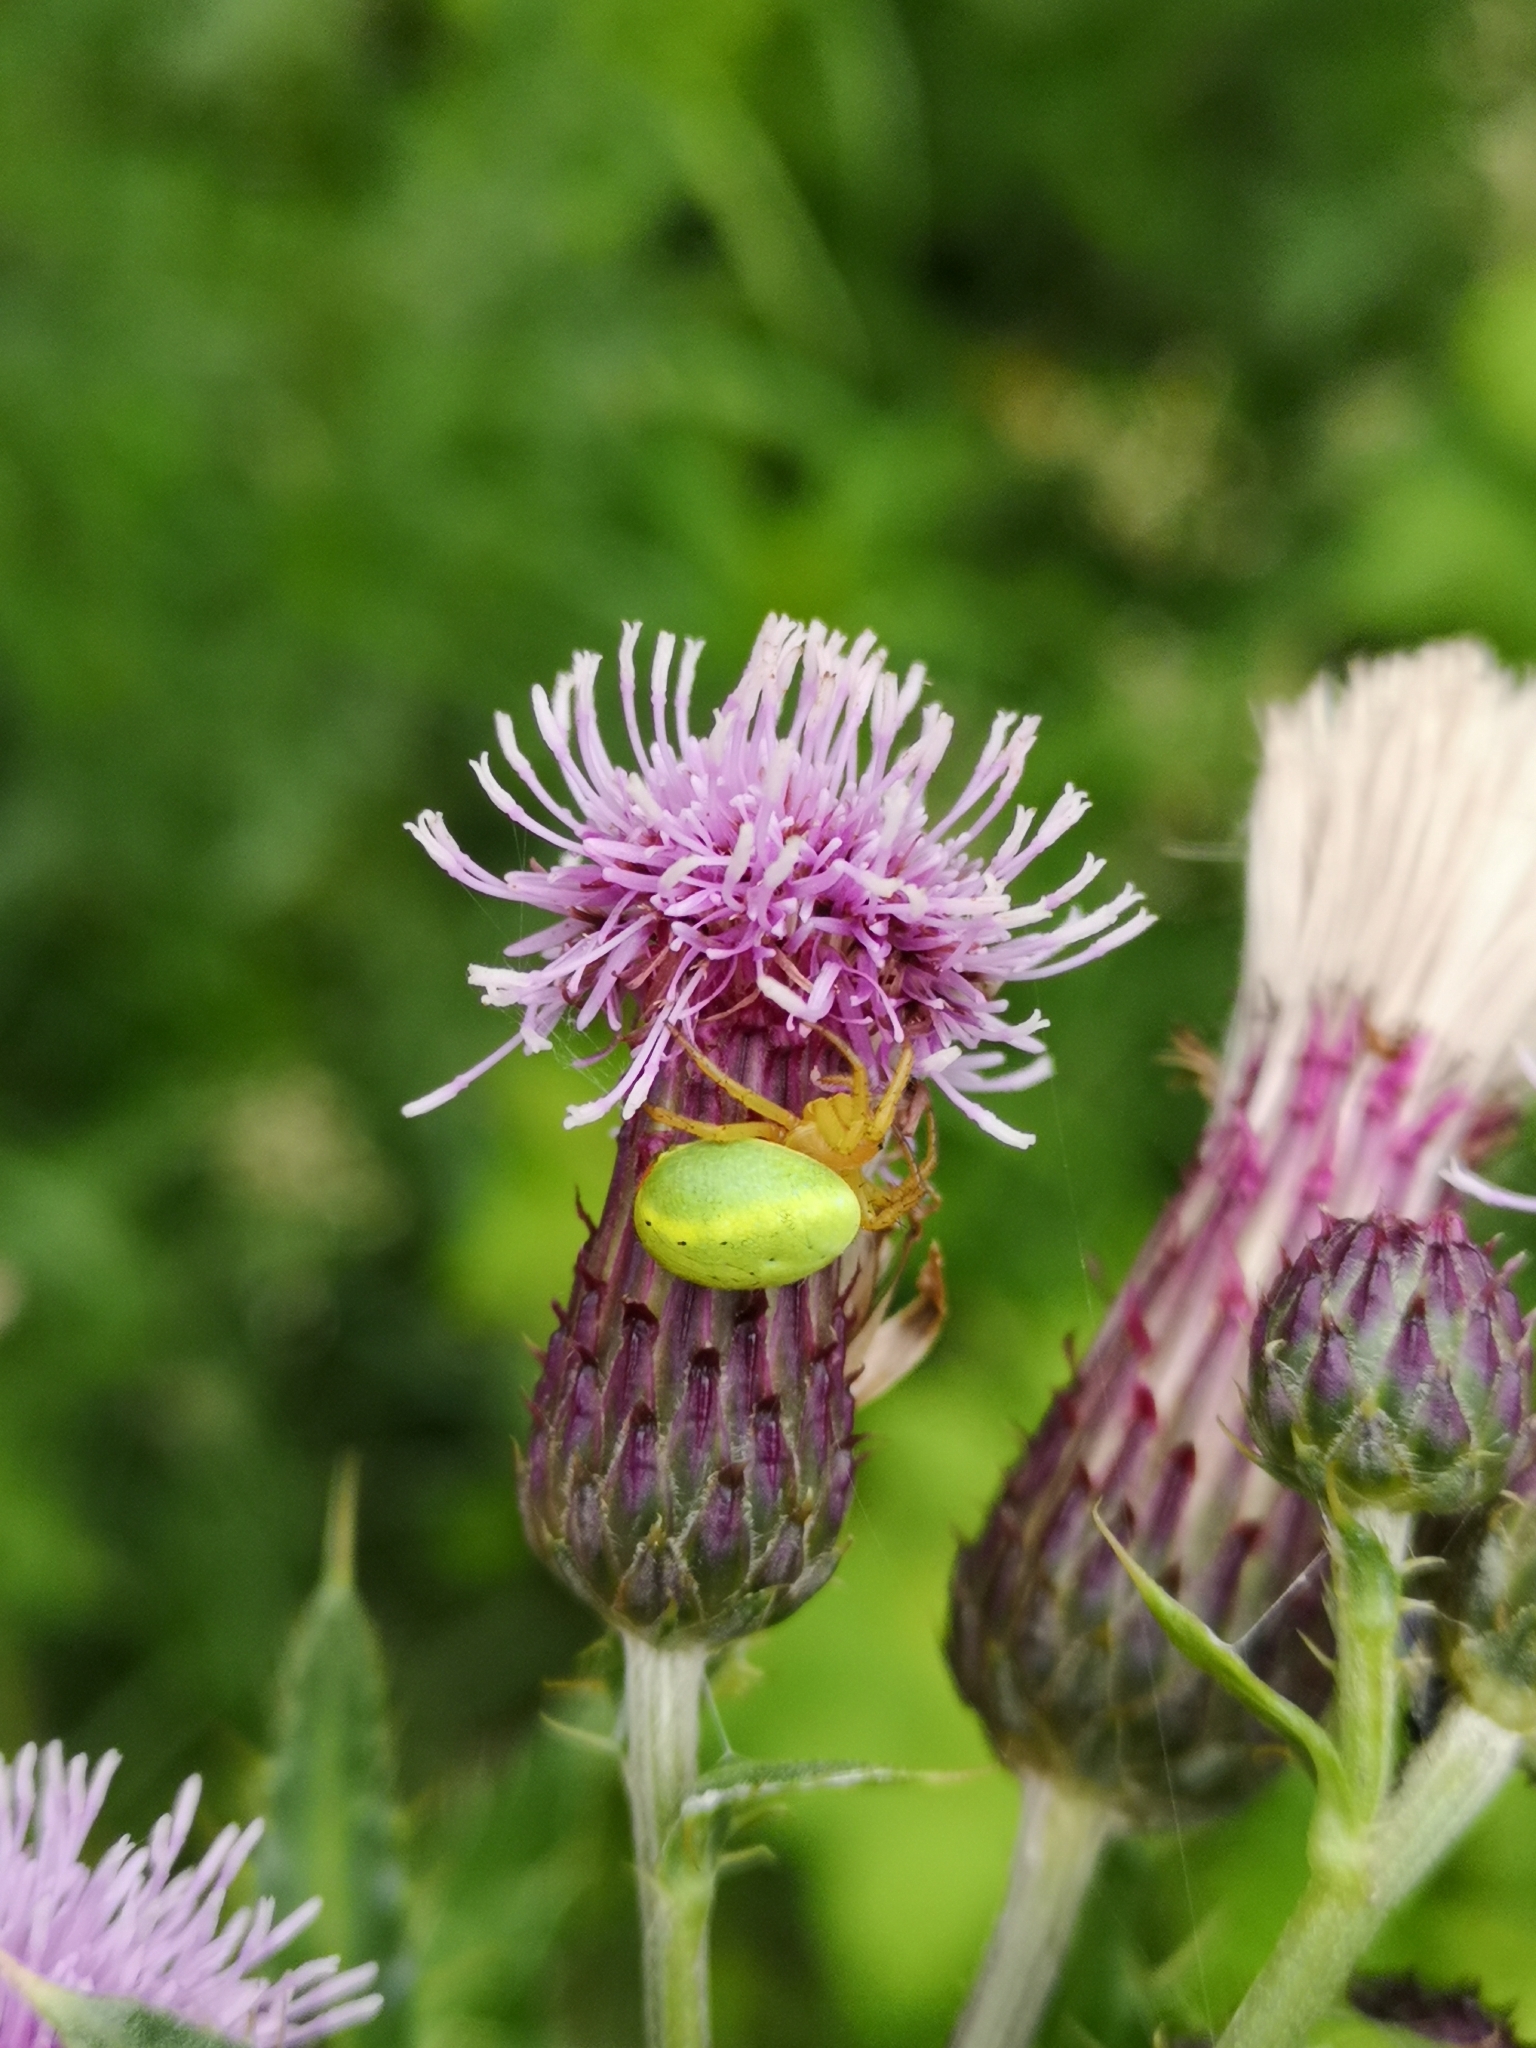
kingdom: Animalia
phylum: Arthropoda
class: Arachnida
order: Araneae
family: Araneidae
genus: Araniella
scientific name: Araniella
